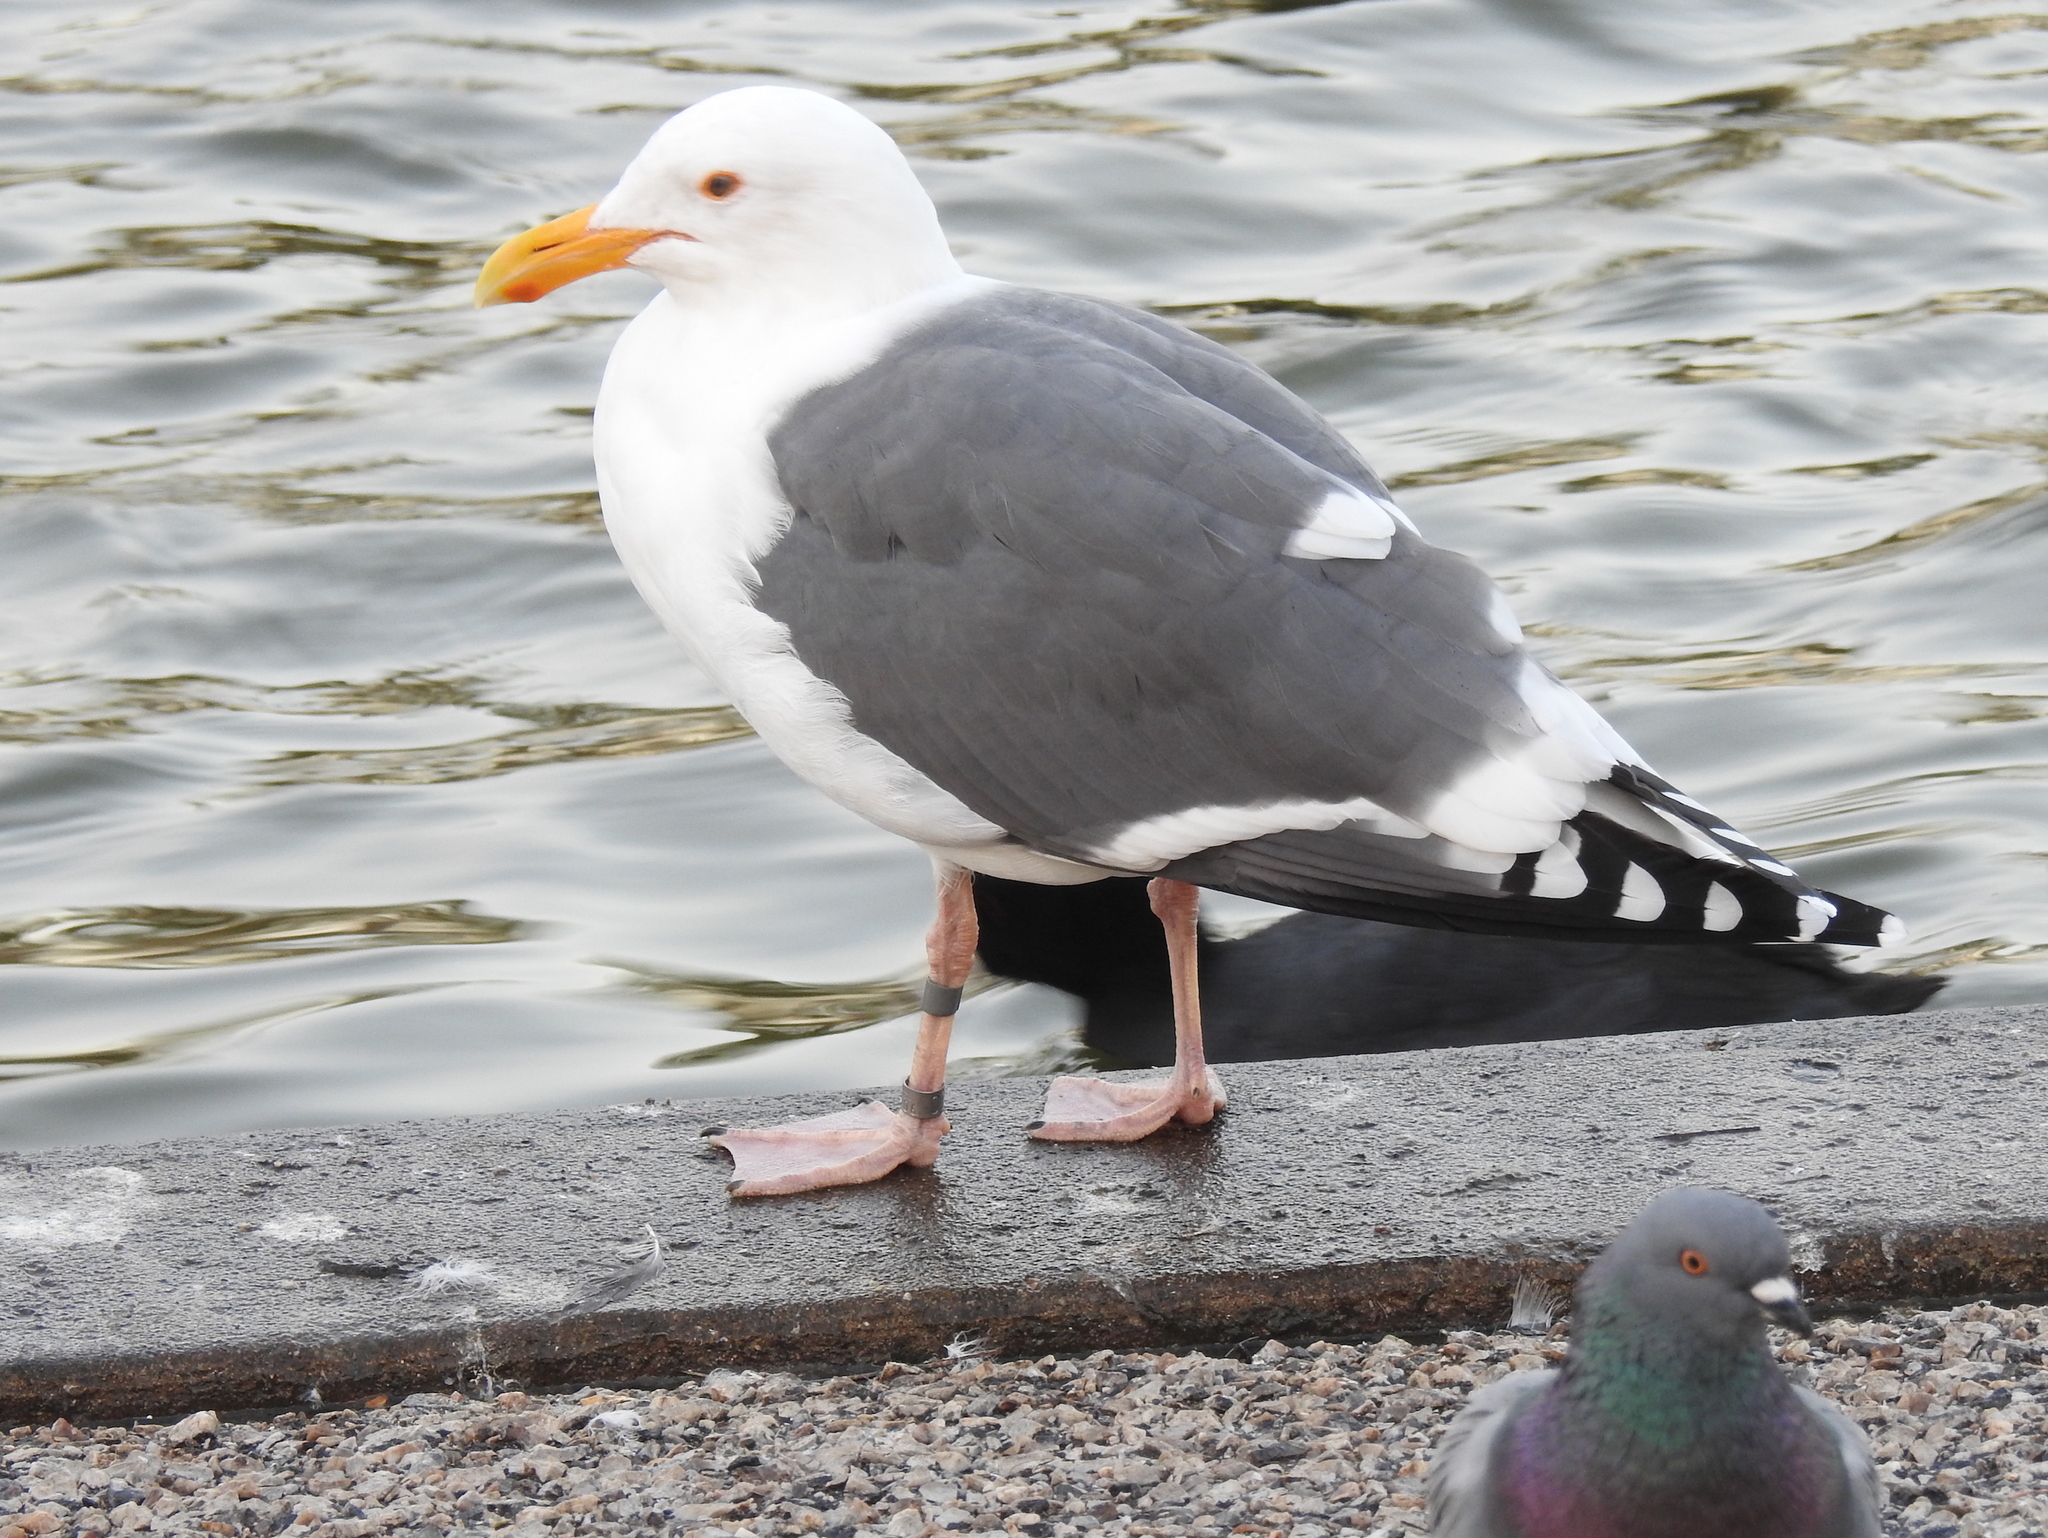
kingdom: Animalia
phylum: Chordata
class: Aves
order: Charadriiformes
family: Laridae
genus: Larus
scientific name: Larus occidentalis
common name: Western gull
